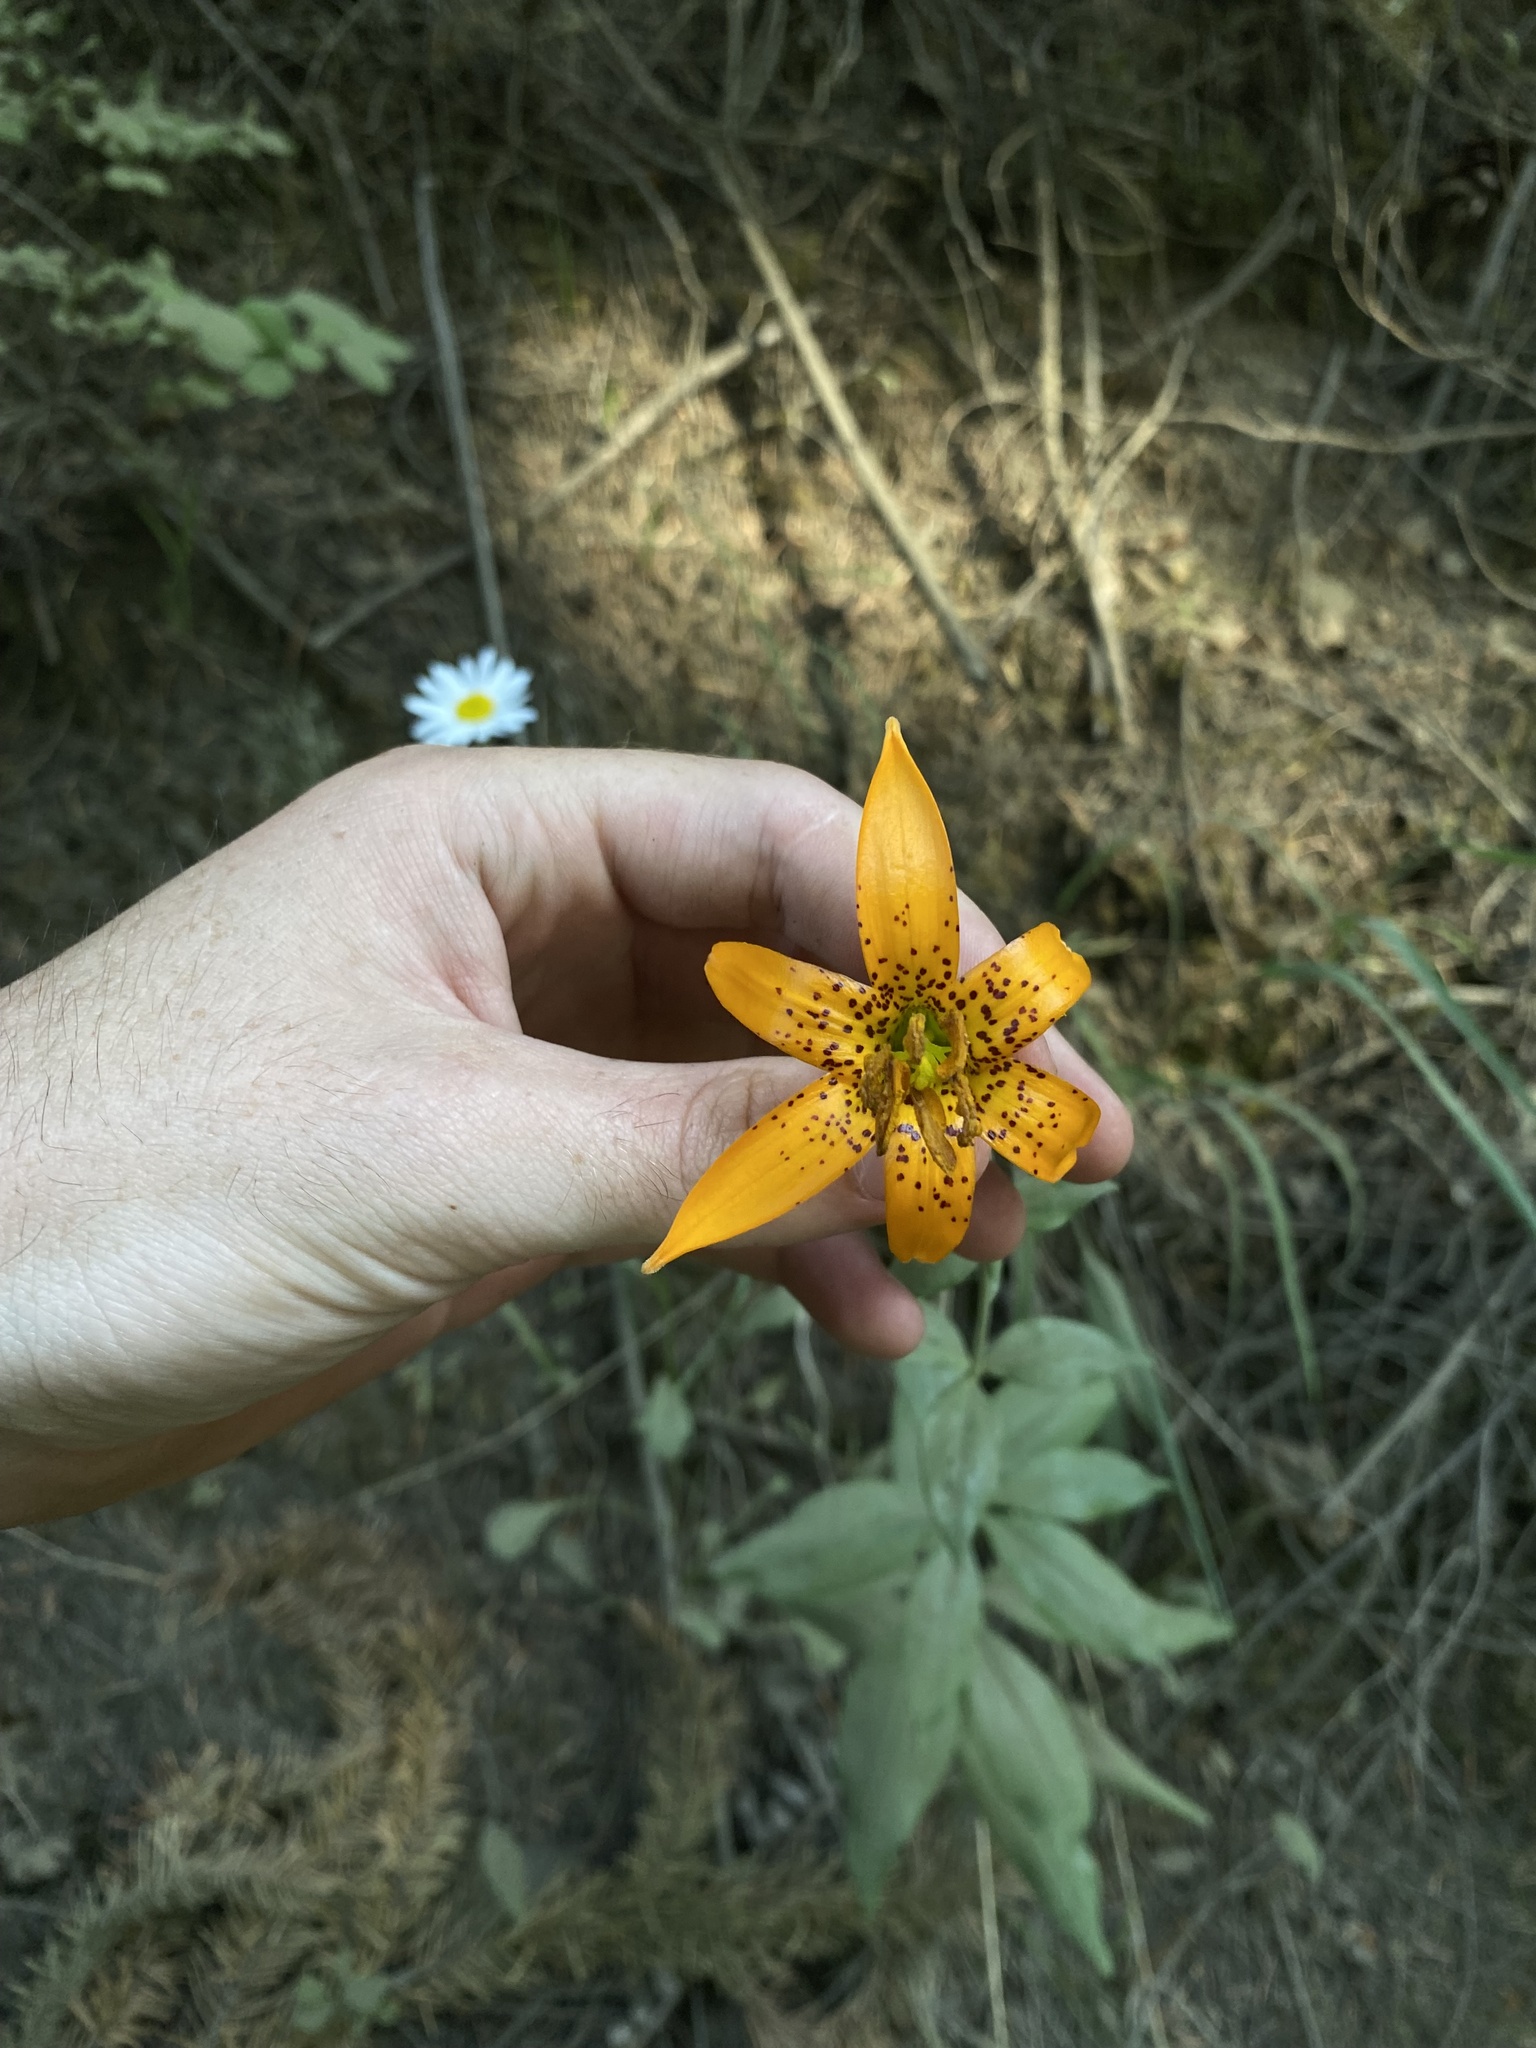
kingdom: Plantae
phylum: Tracheophyta
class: Liliopsida
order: Liliales
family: Liliaceae
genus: Lilium
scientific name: Lilium columbianum
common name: Columbia lily
